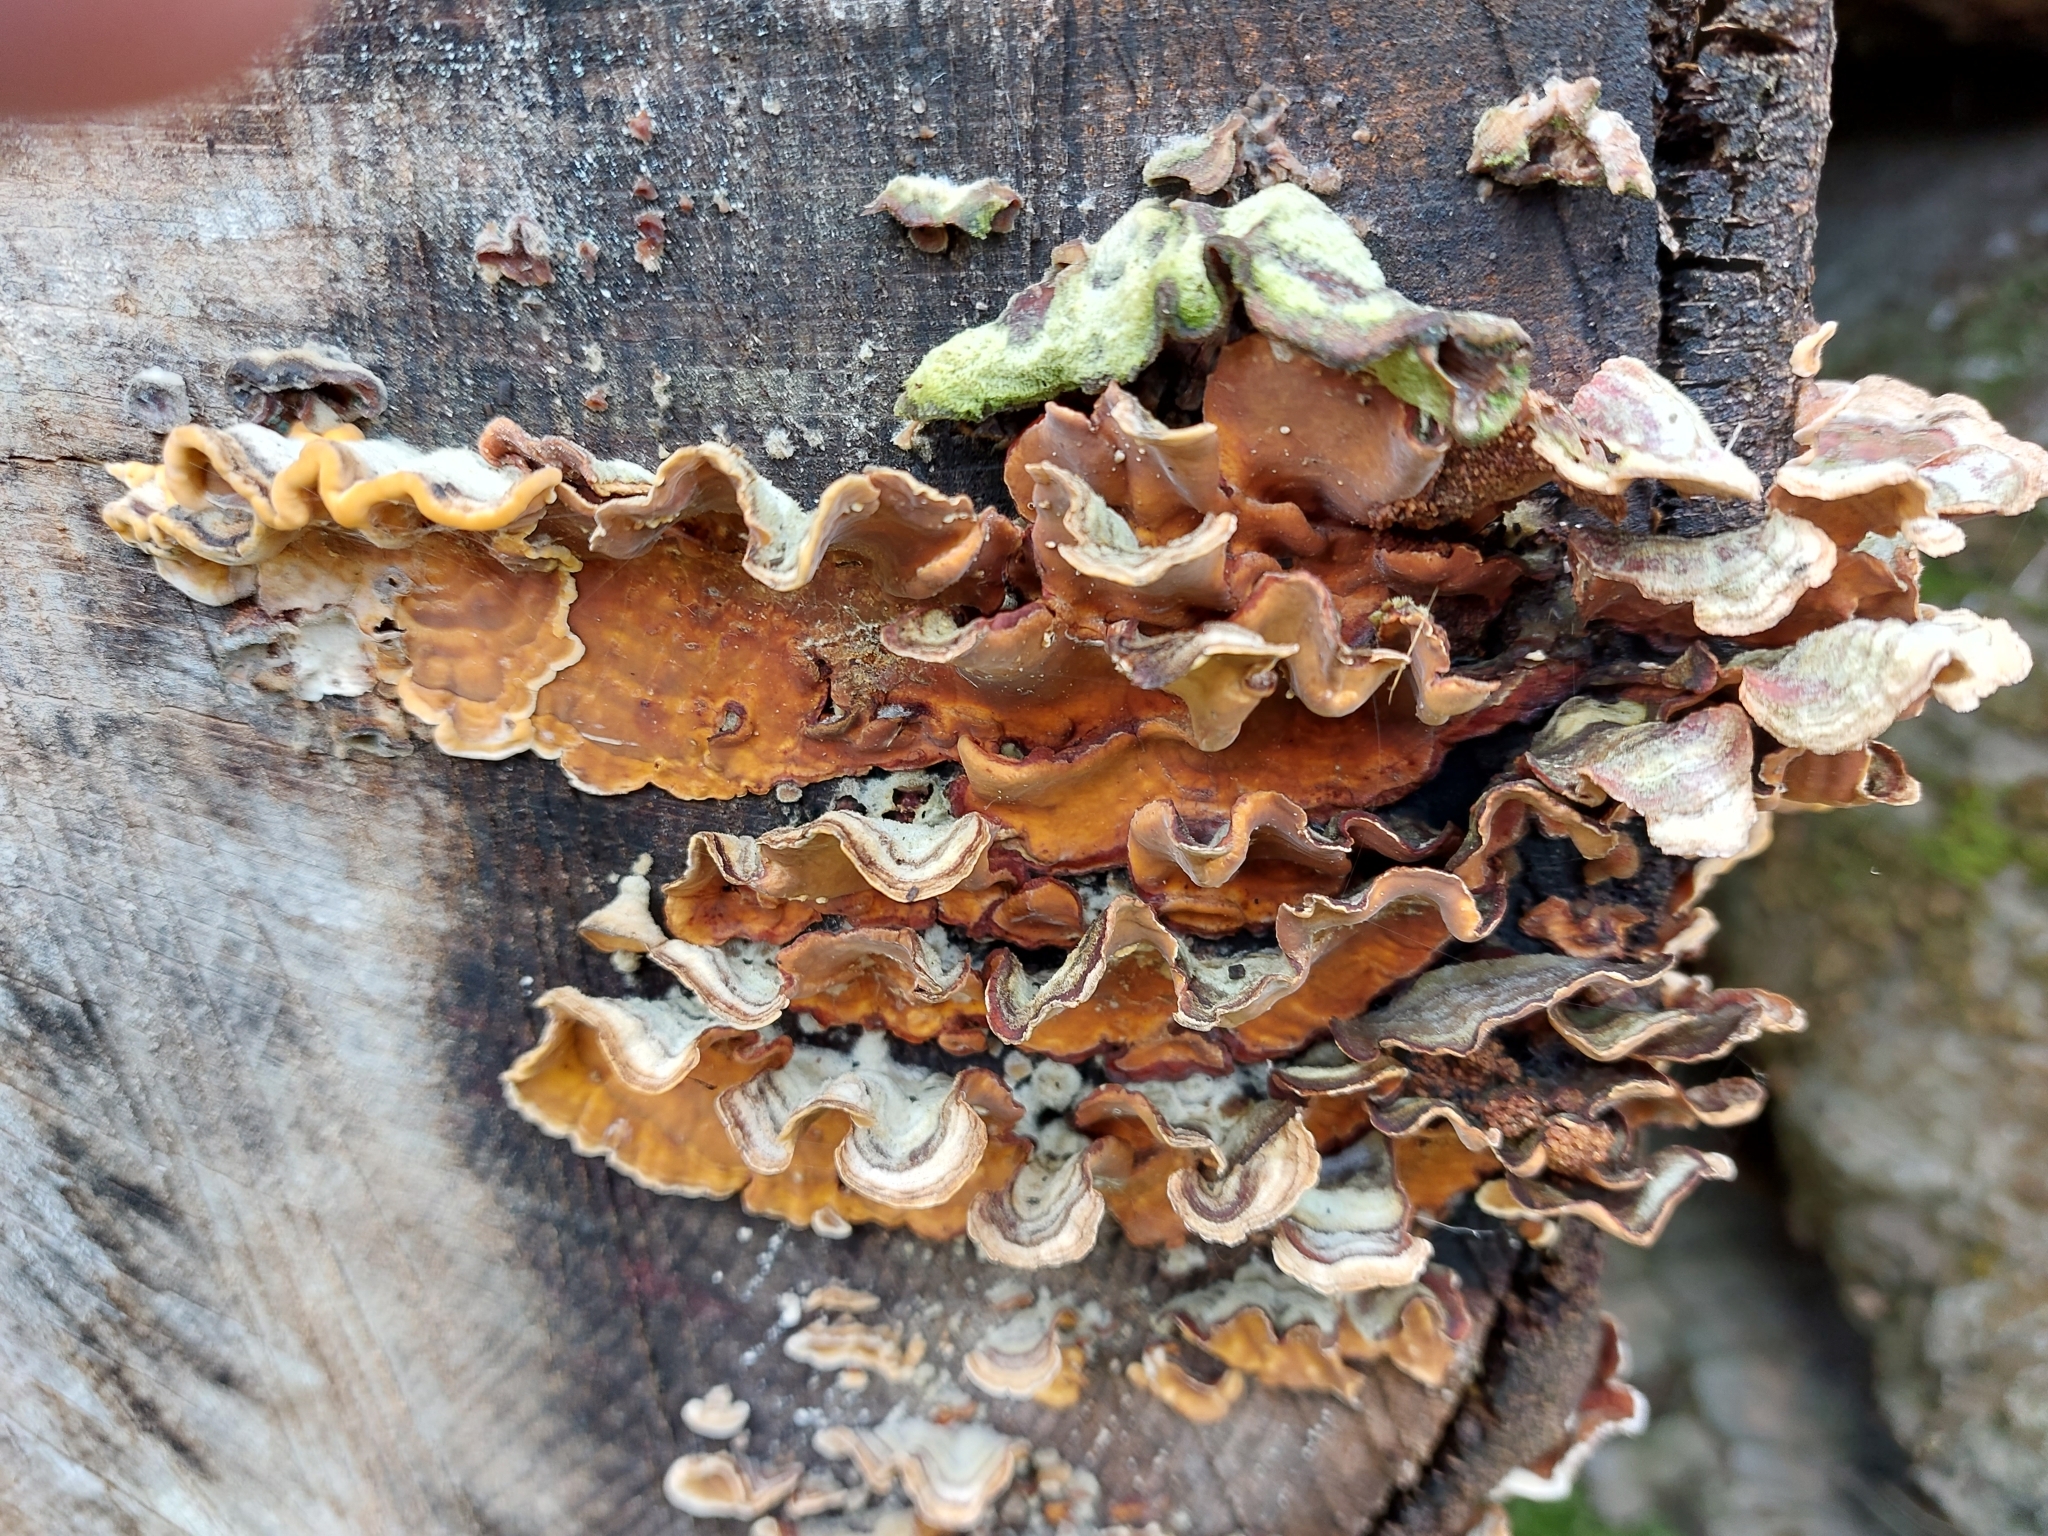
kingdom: Fungi
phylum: Basidiomycota
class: Agaricomycetes
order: Russulales
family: Stereaceae
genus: Stereum
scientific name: Stereum hirsutum
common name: Hairy curtain crust
